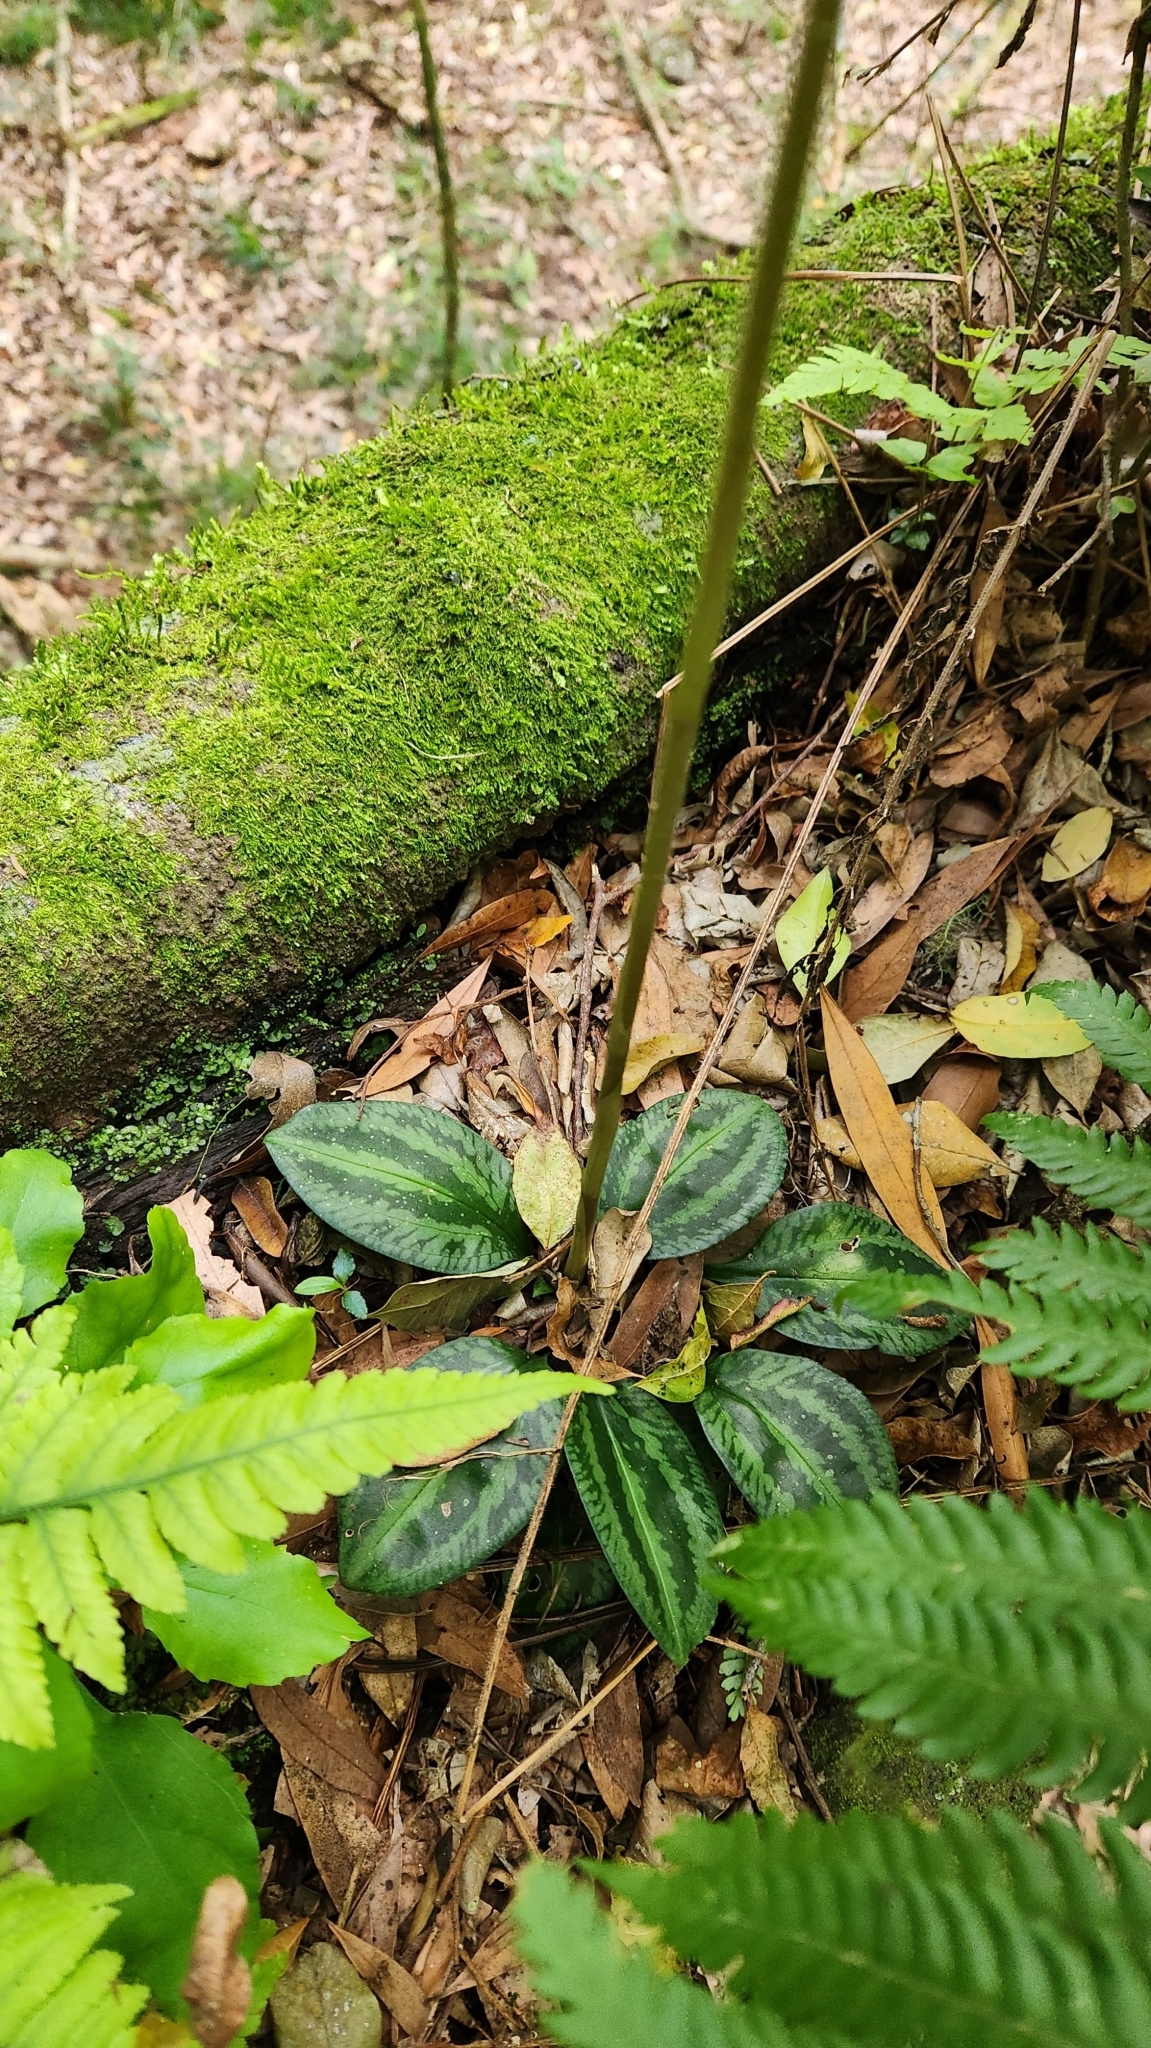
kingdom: Plantae
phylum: Tracheophyta
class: Liliopsida
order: Asparagales
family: Orchidaceae
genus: Cyclopogon
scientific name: Cyclopogon chloroleucus
